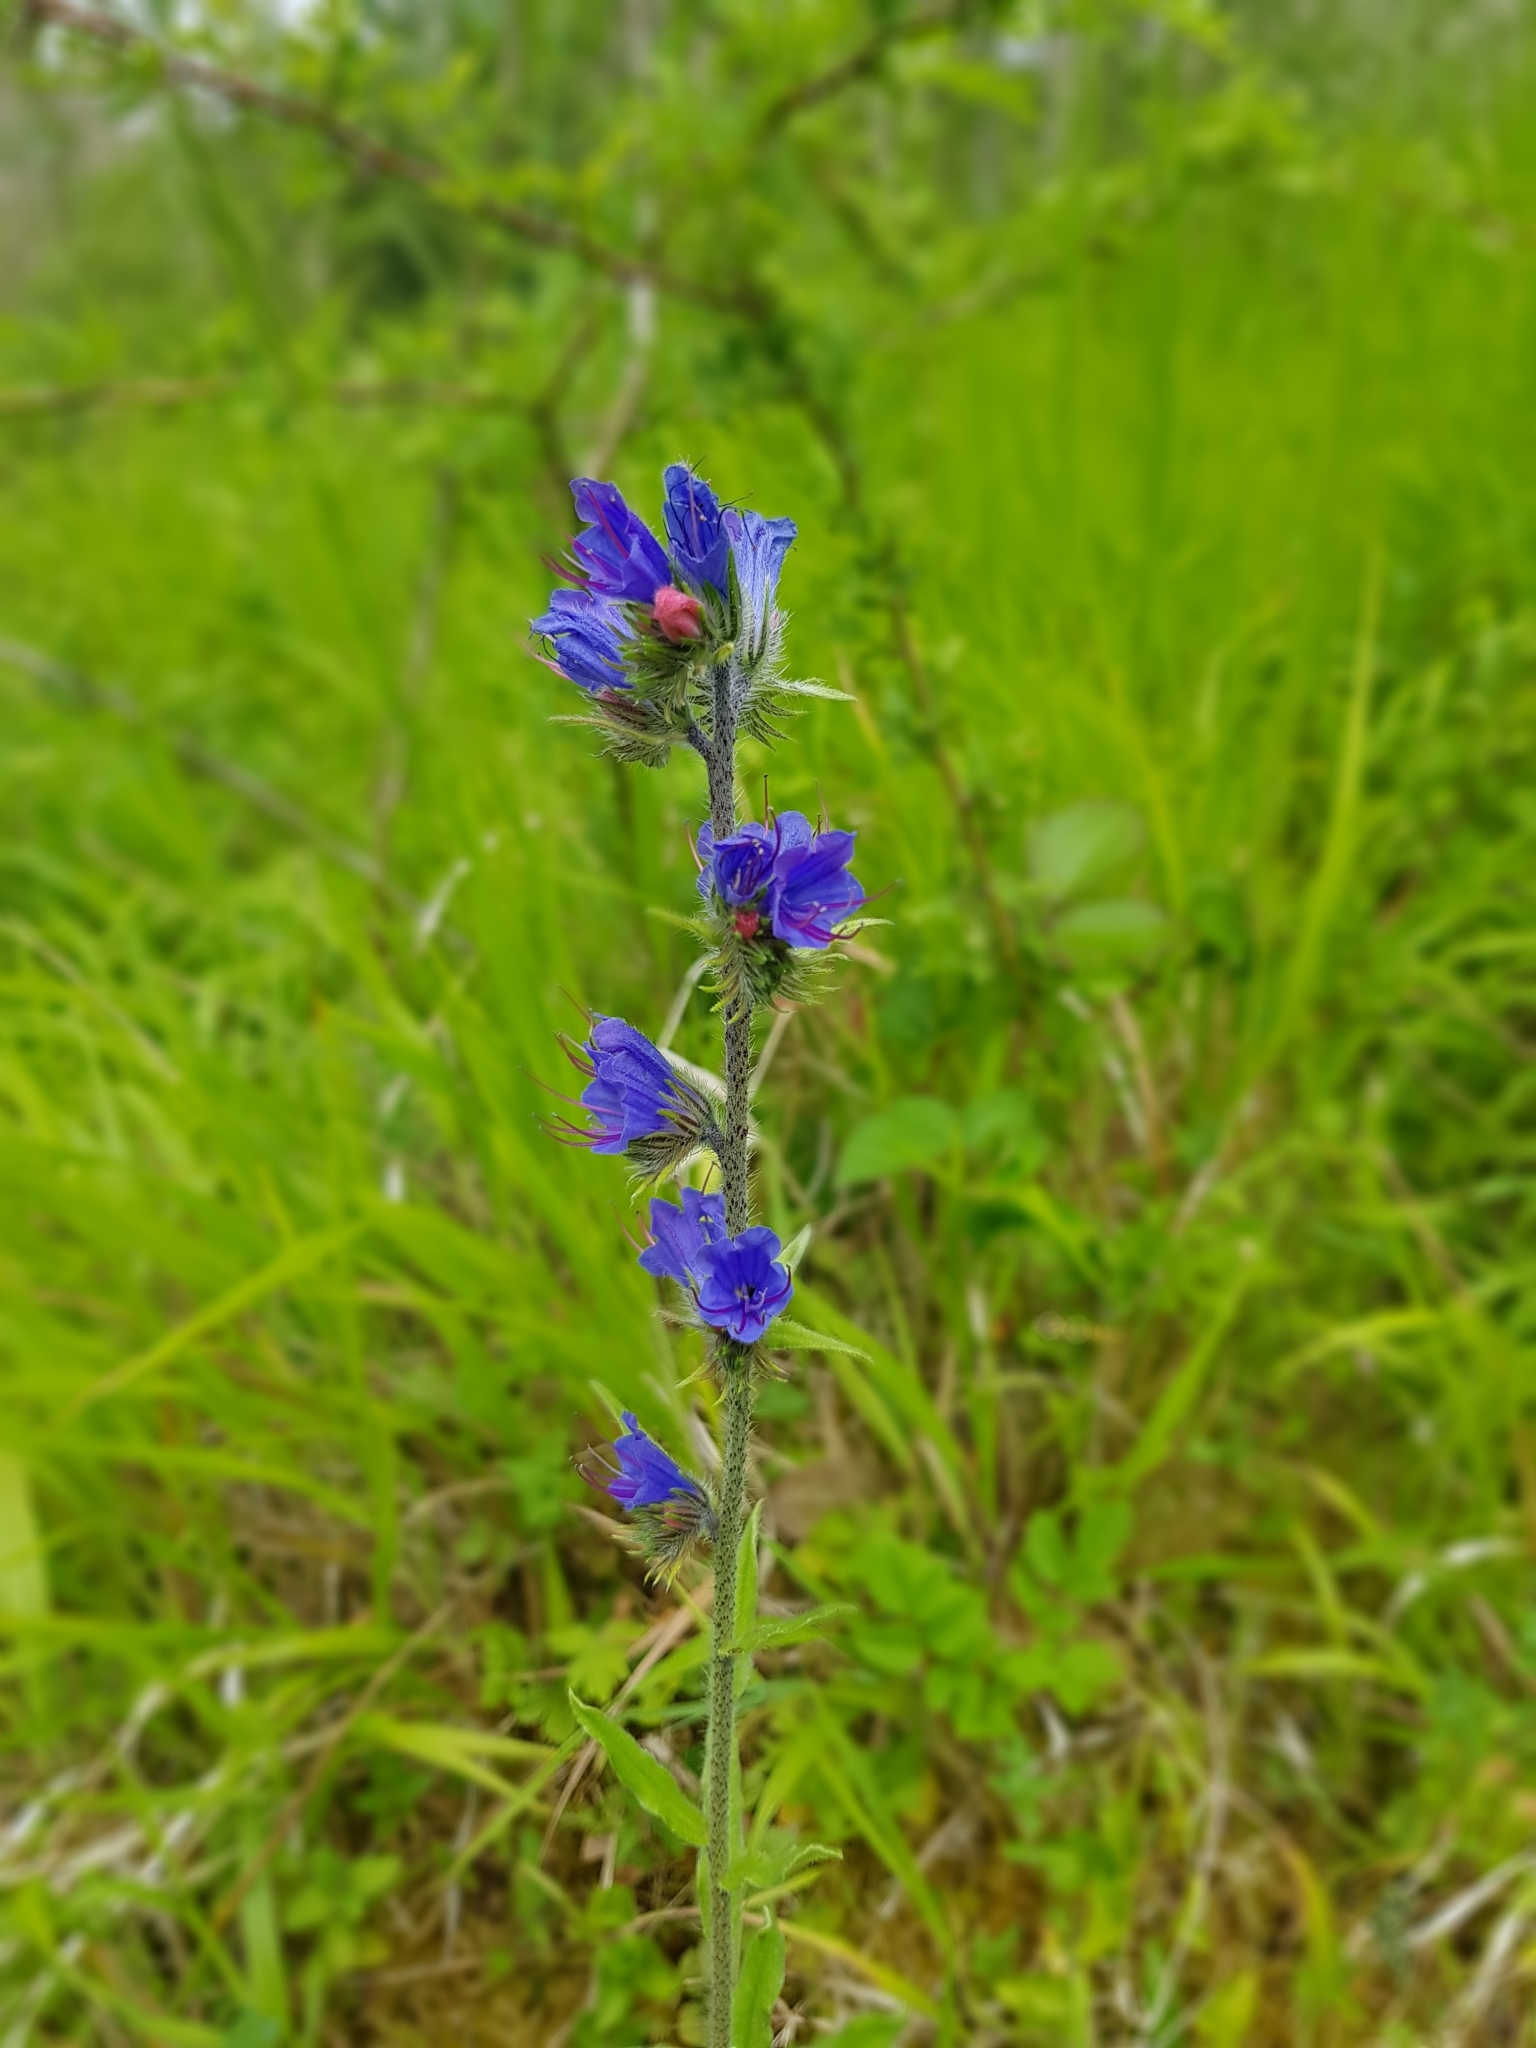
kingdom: Plantae
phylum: Tracheophyta
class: Magnoliopsida
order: Boraginales
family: Boraginaceae
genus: Echium
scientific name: Echium vulgare
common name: Common viper's bugloss
